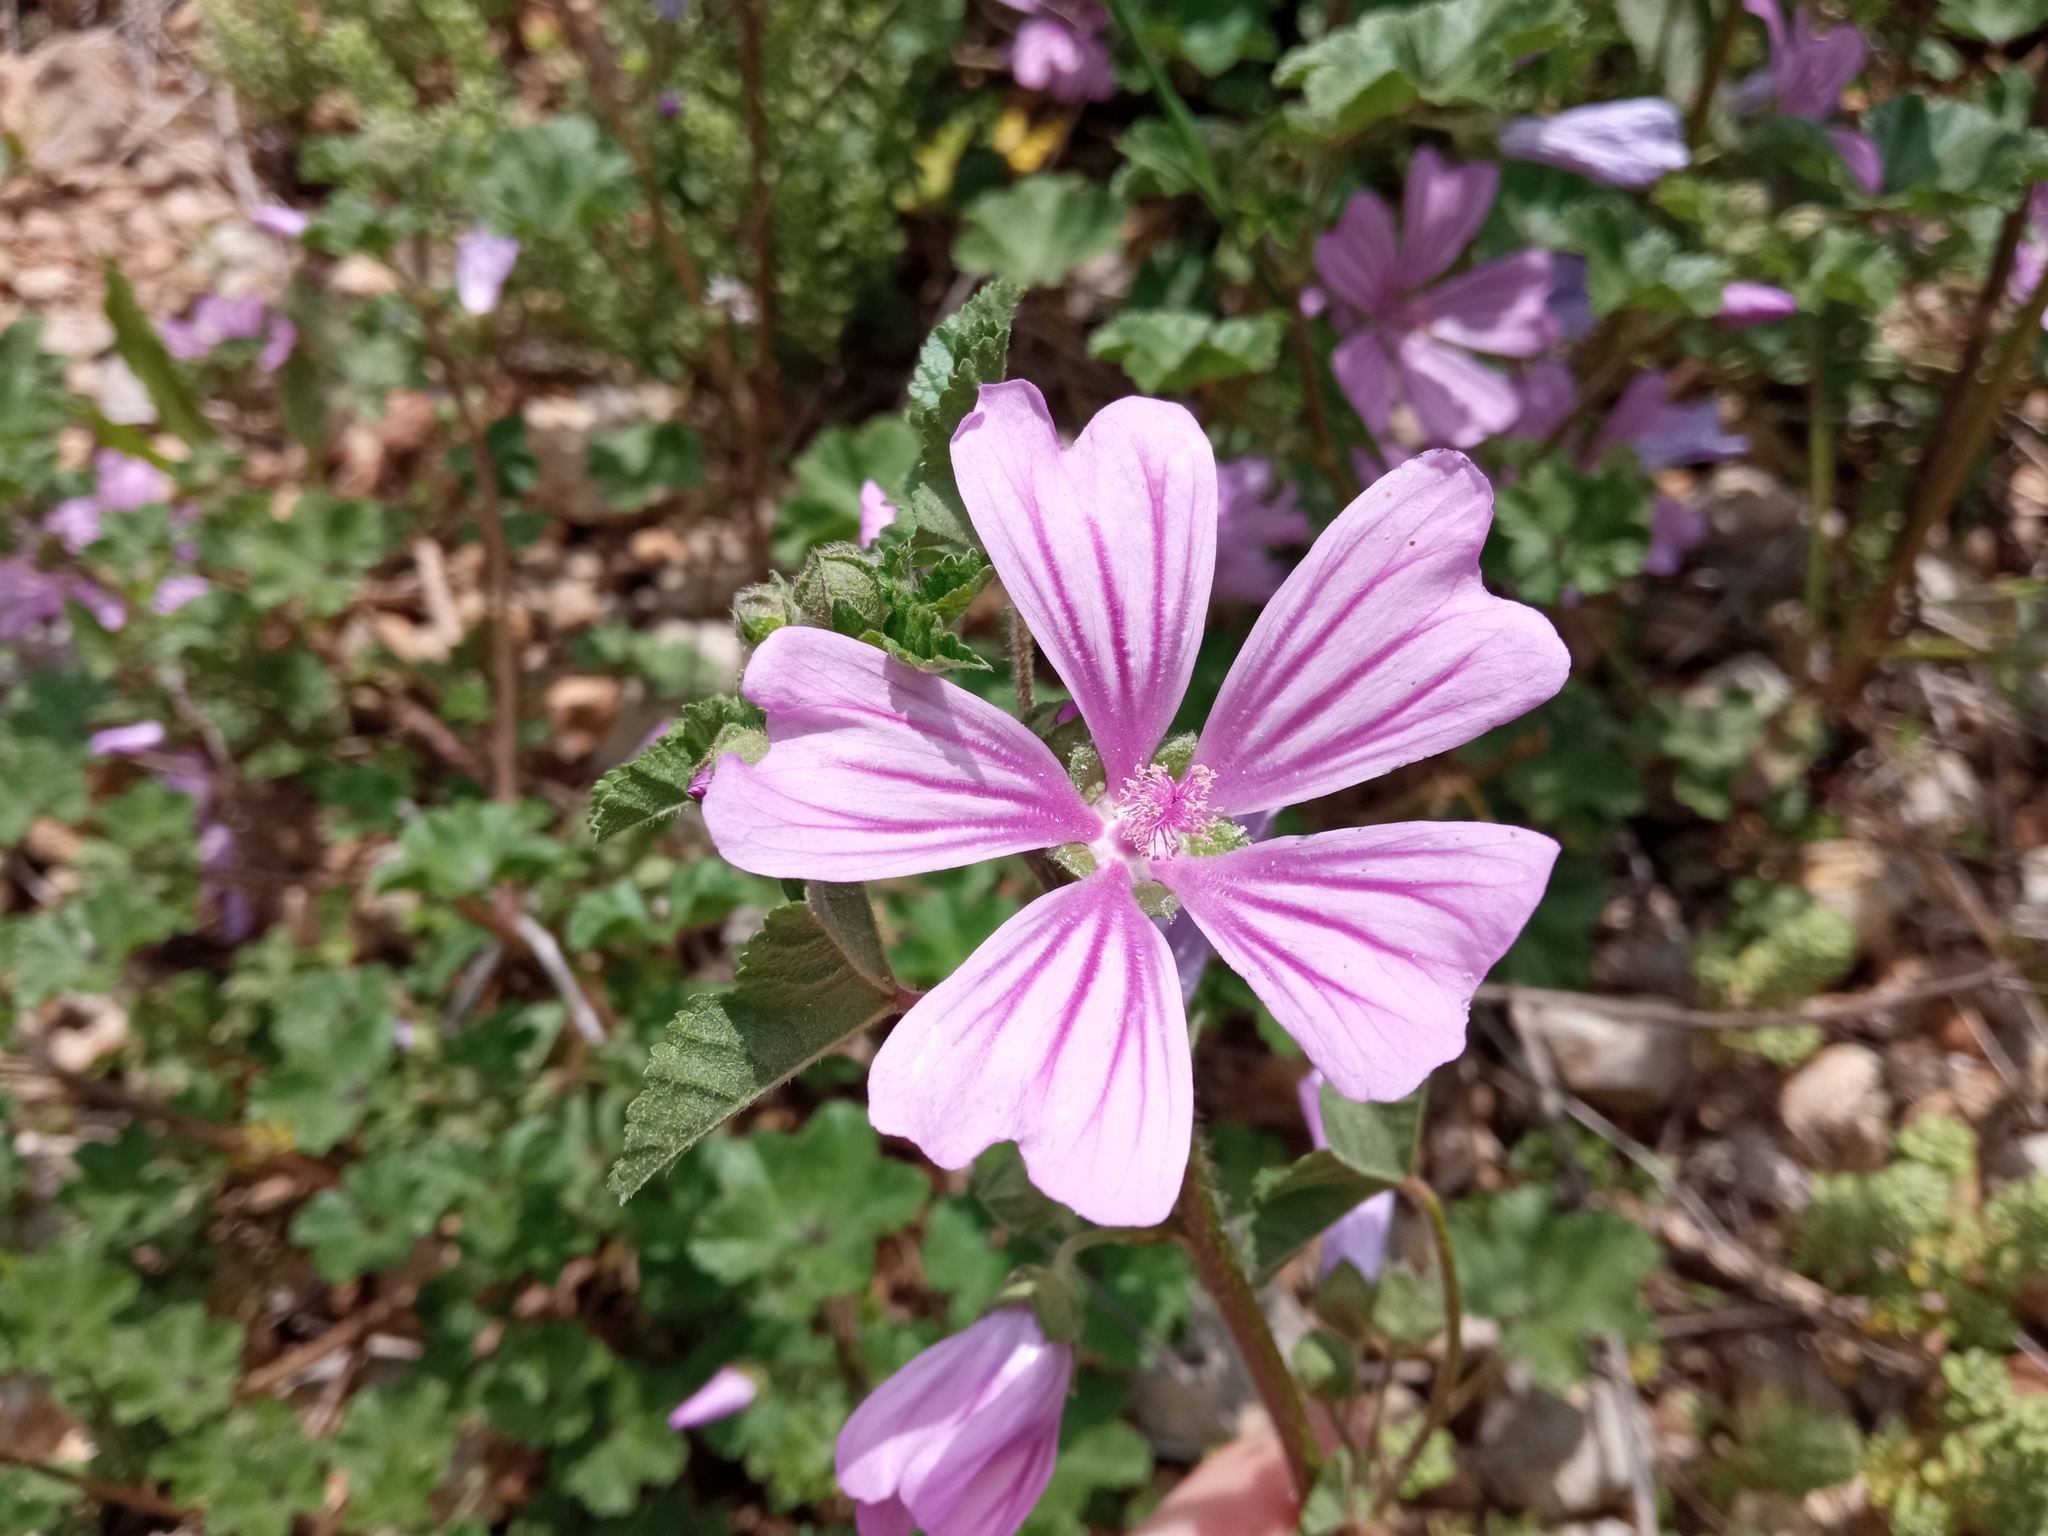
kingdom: Plantae
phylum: Tracheophyta
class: Magnoliopsida
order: Malvales
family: Malvaceae
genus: Malva
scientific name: Malva sylvestris
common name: Common mallow
